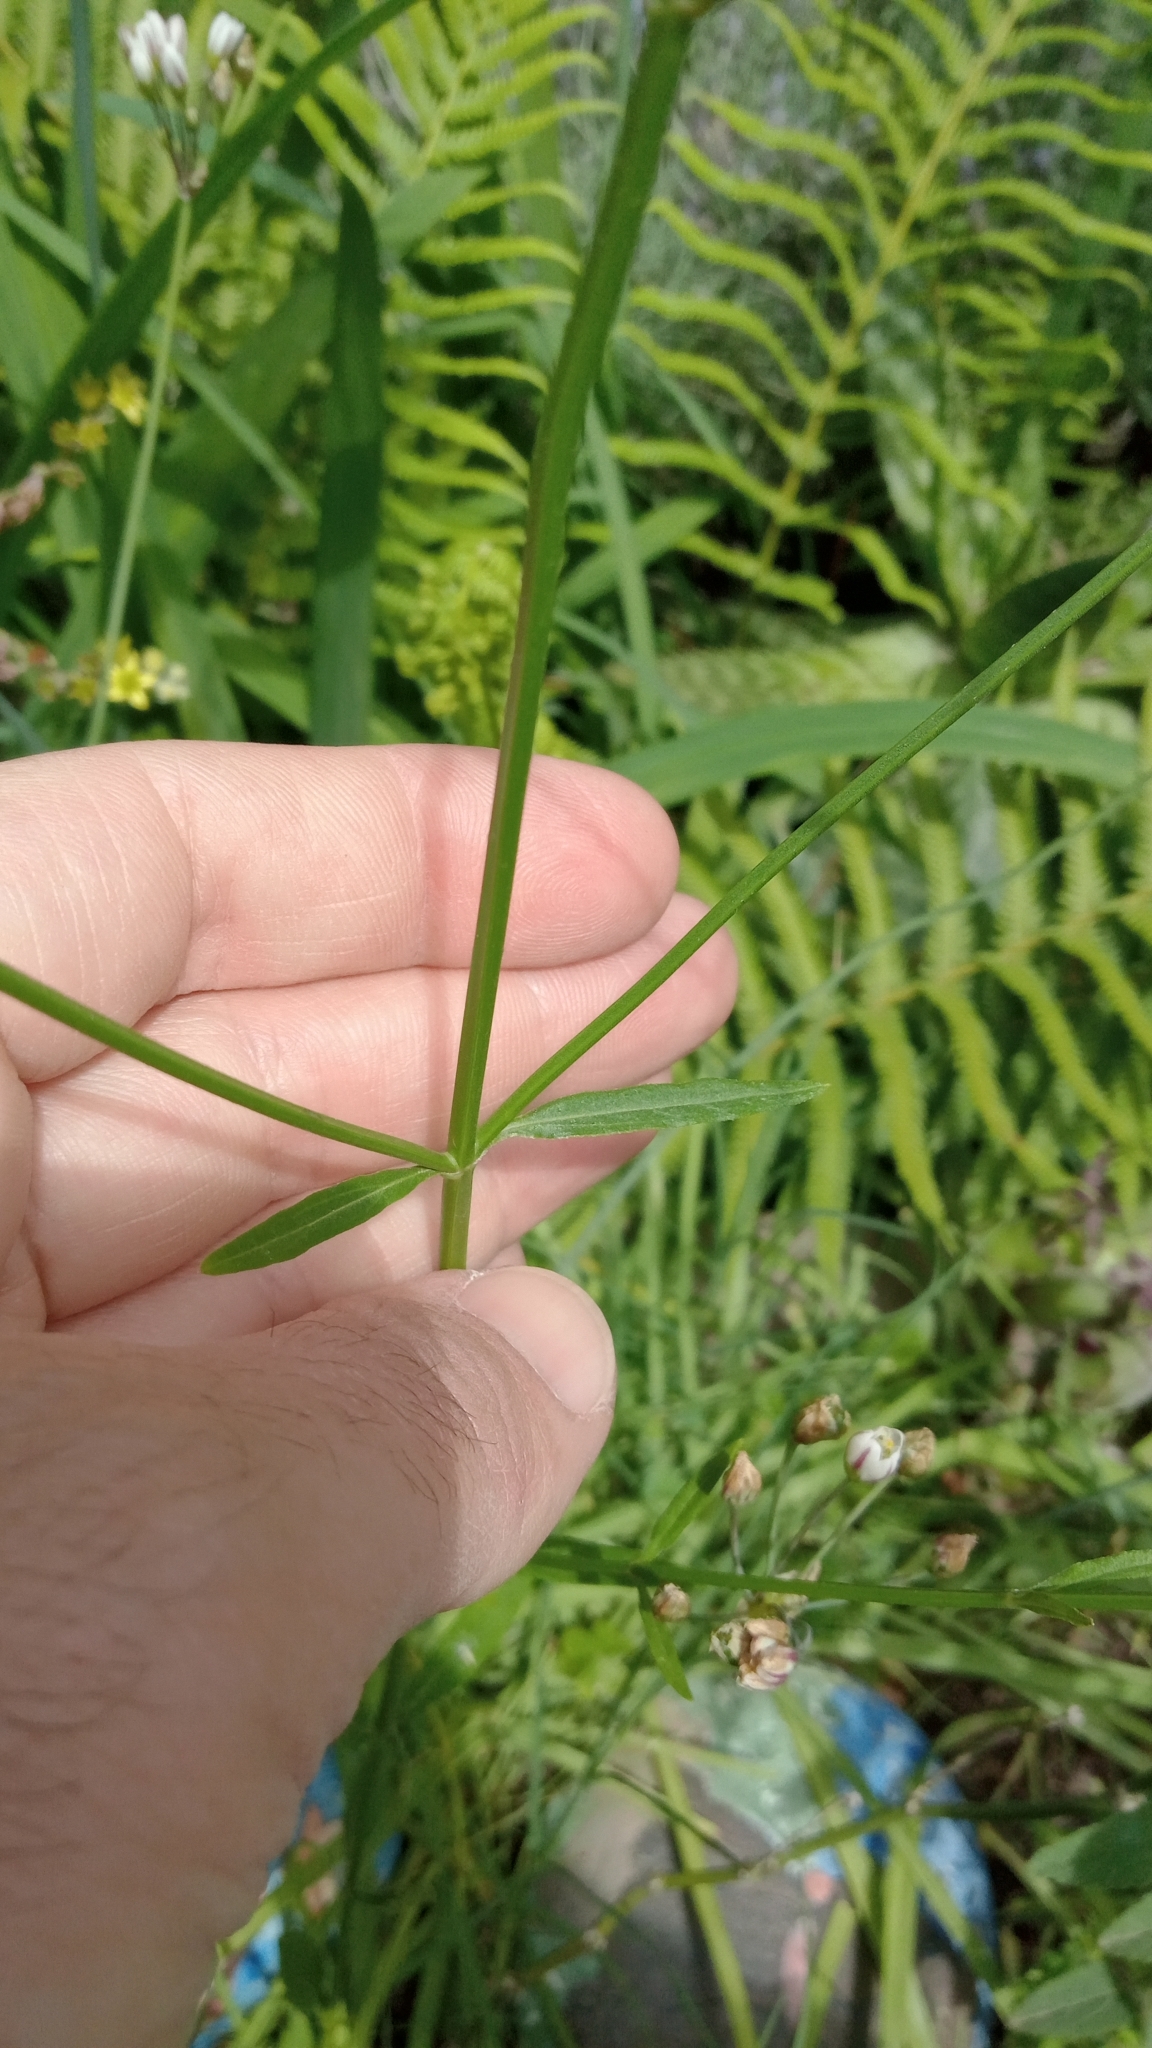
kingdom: Plantae
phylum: Tracheophyta
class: Magnoliopsida
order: Lamiales
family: Verbenaceae
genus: Verbena
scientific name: Verbena litoralis
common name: Seashore vervain
